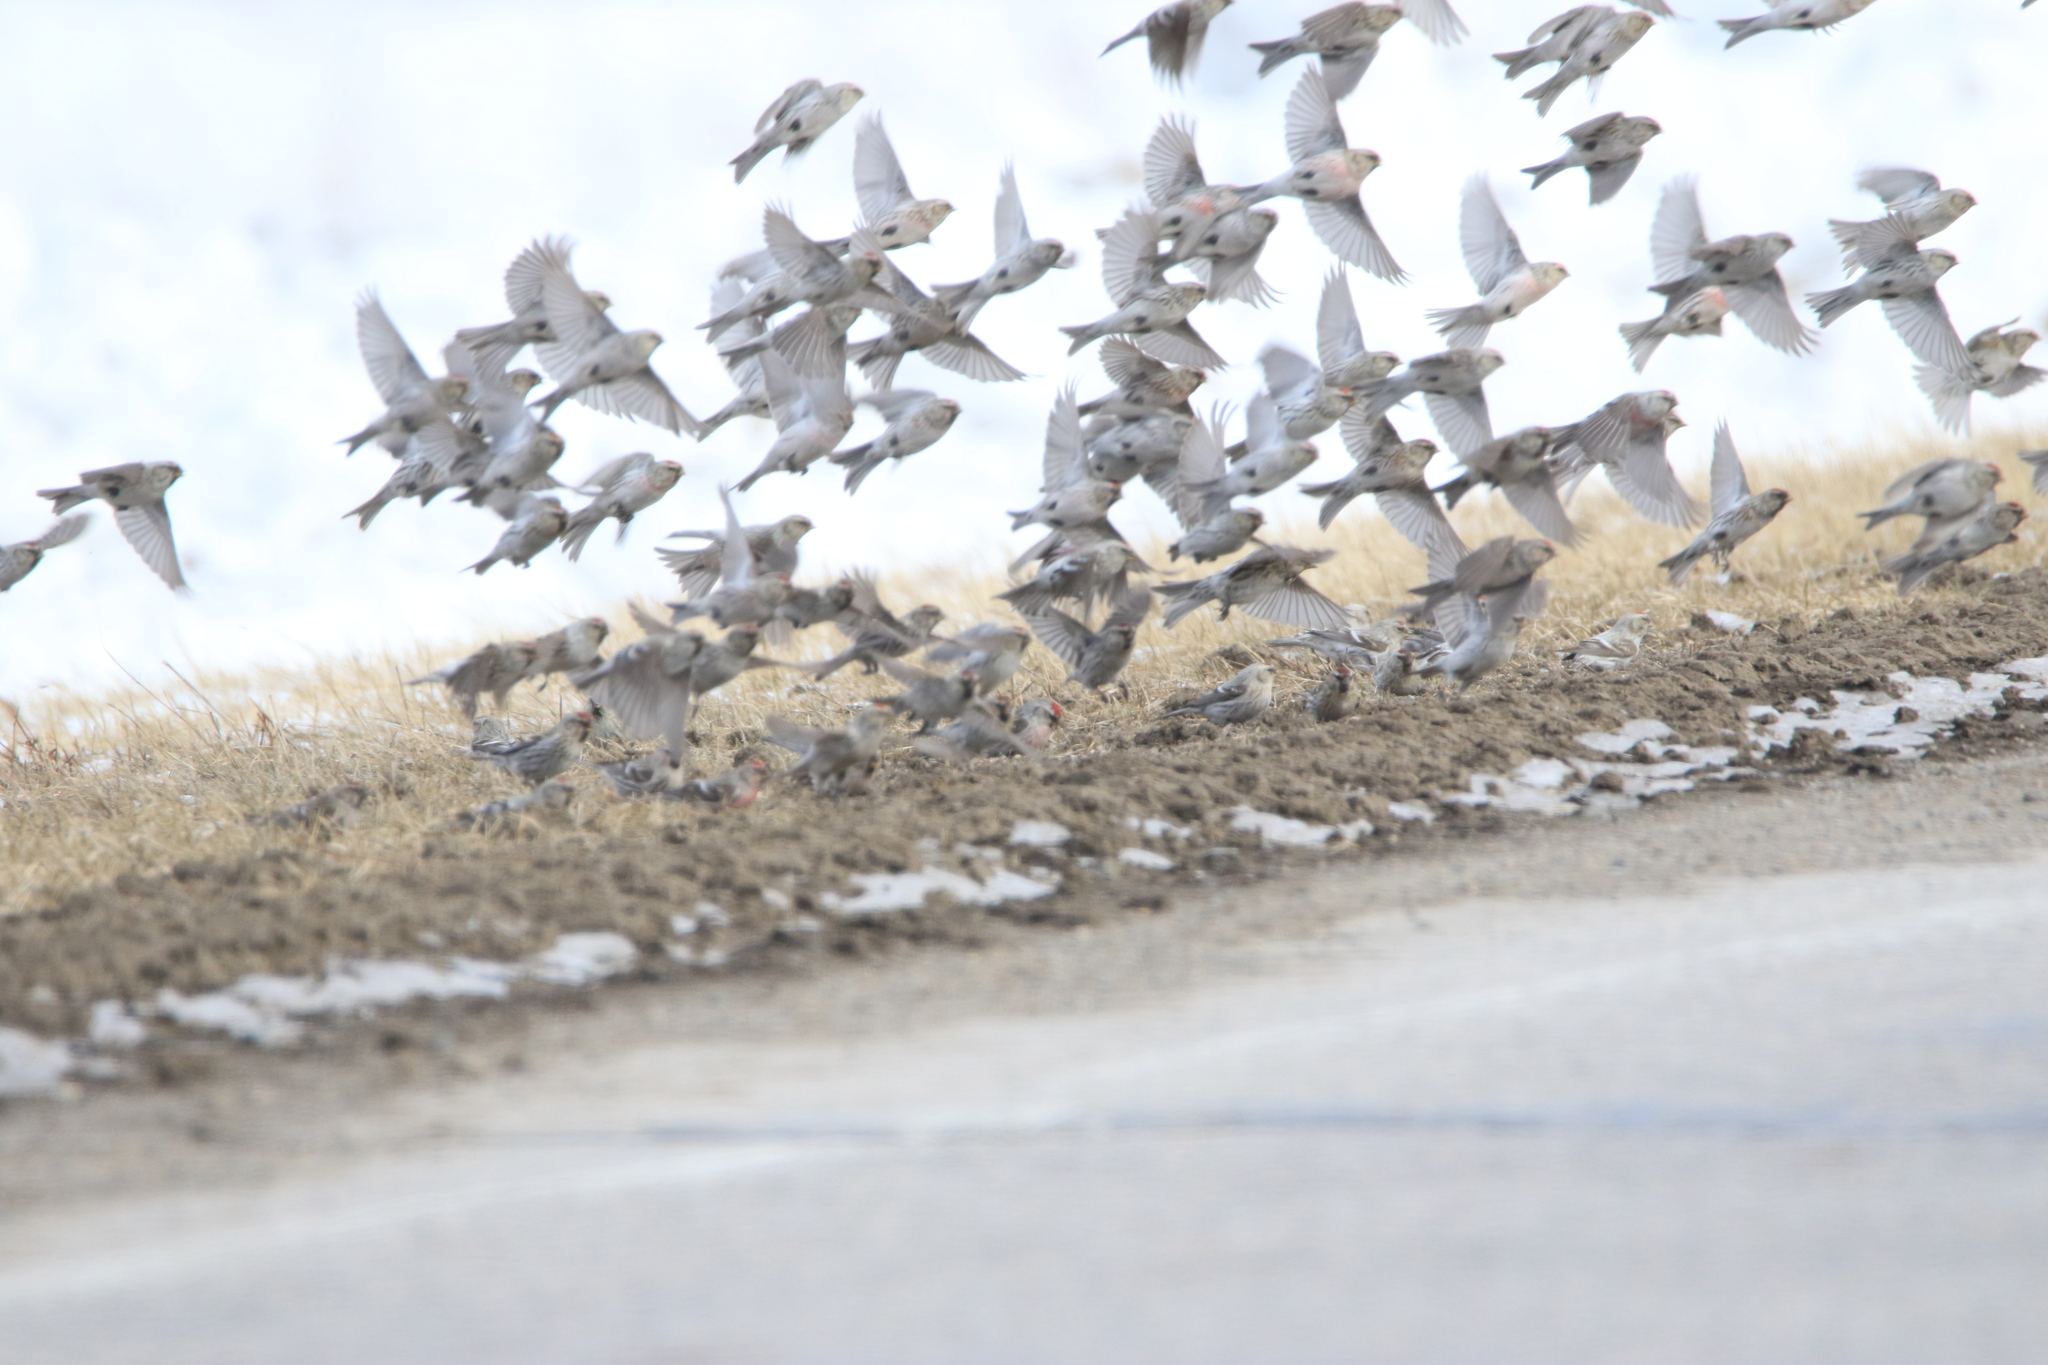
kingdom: Animalia
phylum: Chordata
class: Aves
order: Passeriformes
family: Fringillidae
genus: Acanthis
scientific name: Acanthis flammea
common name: Common redpoll
